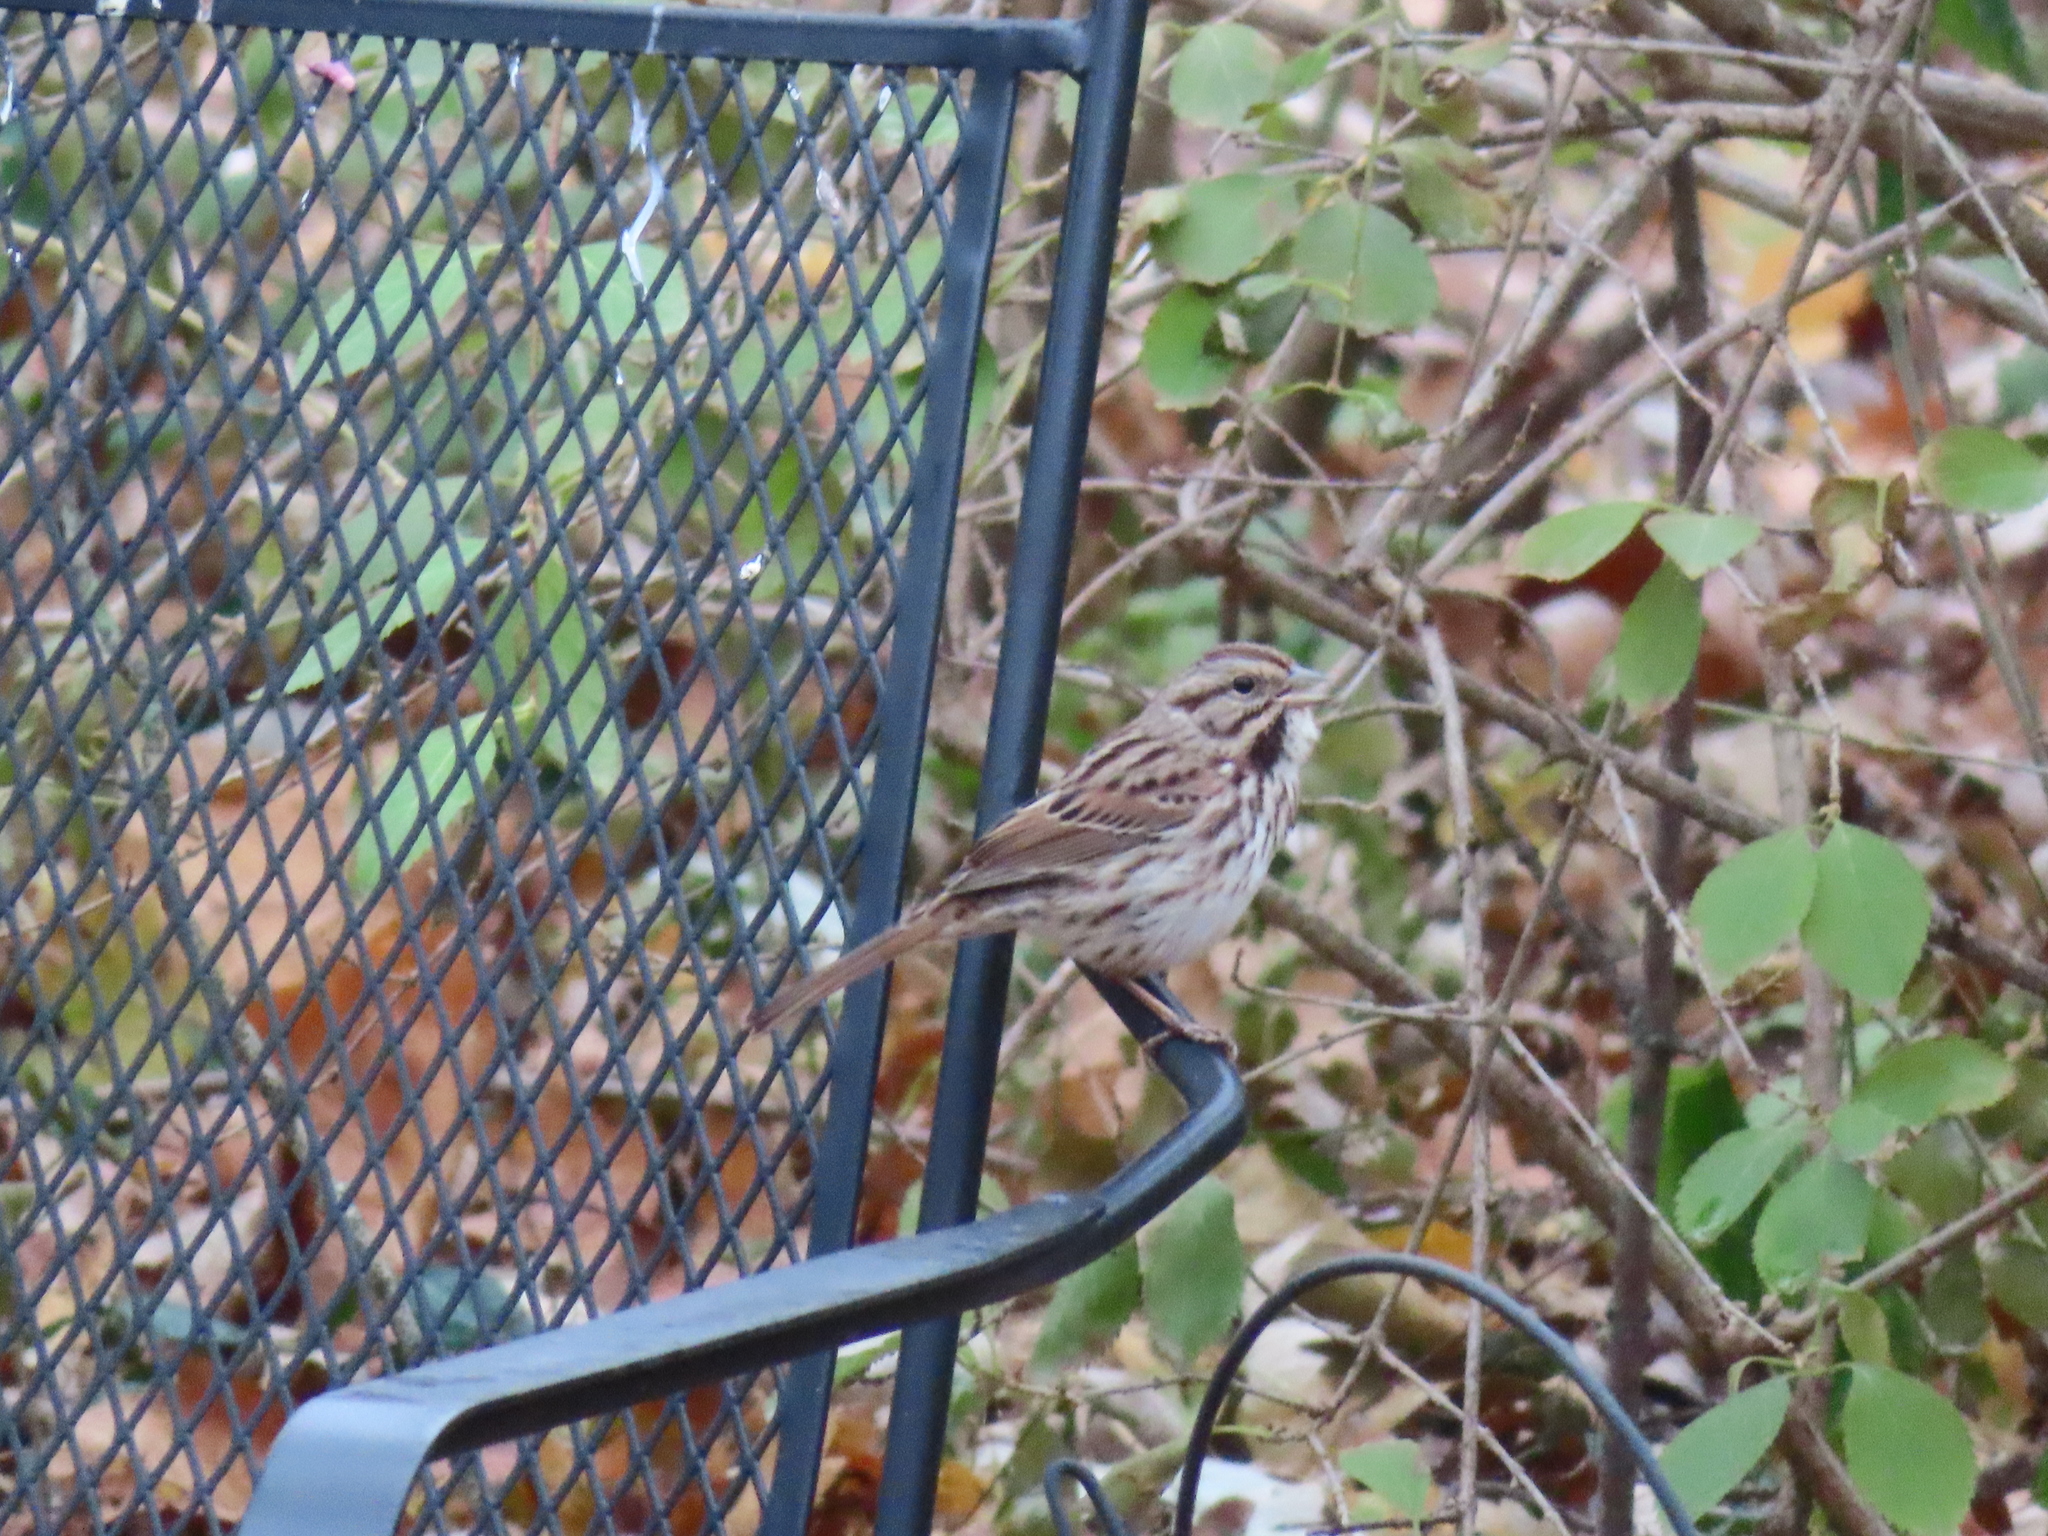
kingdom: Animalia
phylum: Chordata
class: Aves
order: Passeriformes
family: Passerellidae
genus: Melospiza
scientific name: Melospiza melodia
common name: Song sparrow
